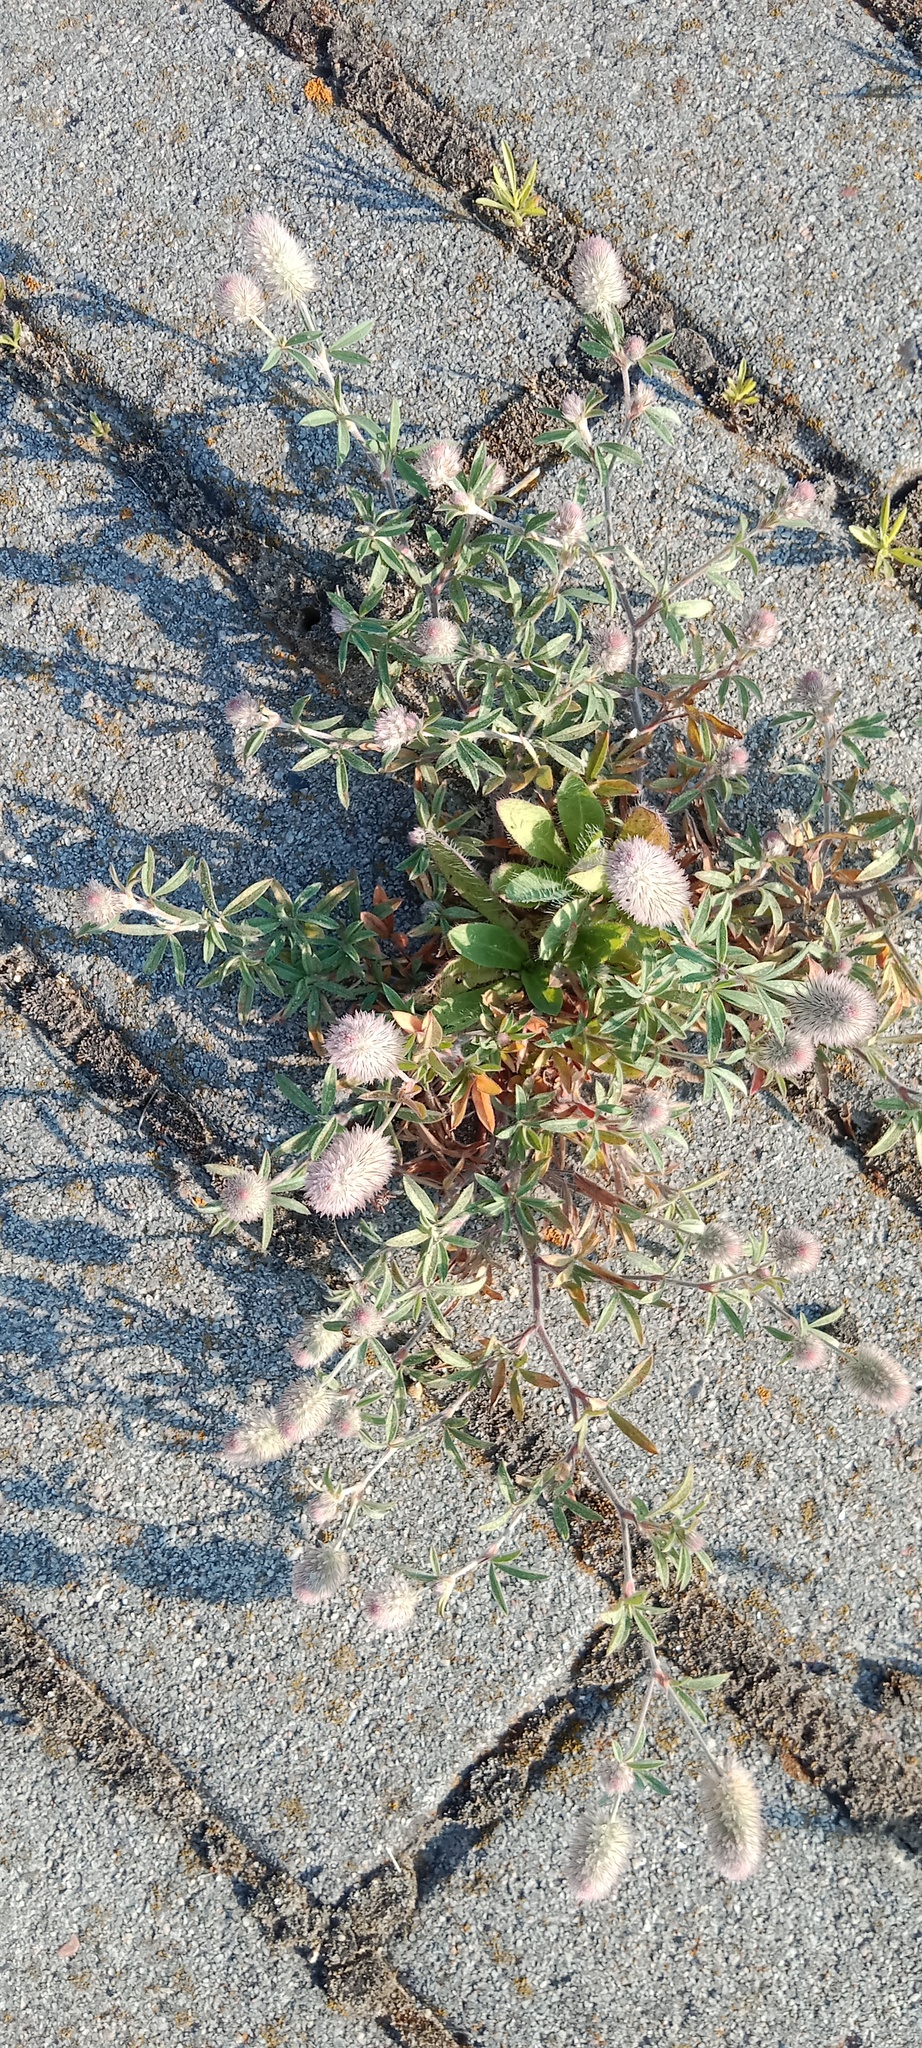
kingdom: Plantae
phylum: Tracheophyta
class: Magnoliopsida
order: Fabales
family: Fabaceae
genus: Trifolium
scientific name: Trifolium arvense
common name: Hare's-foot clover
